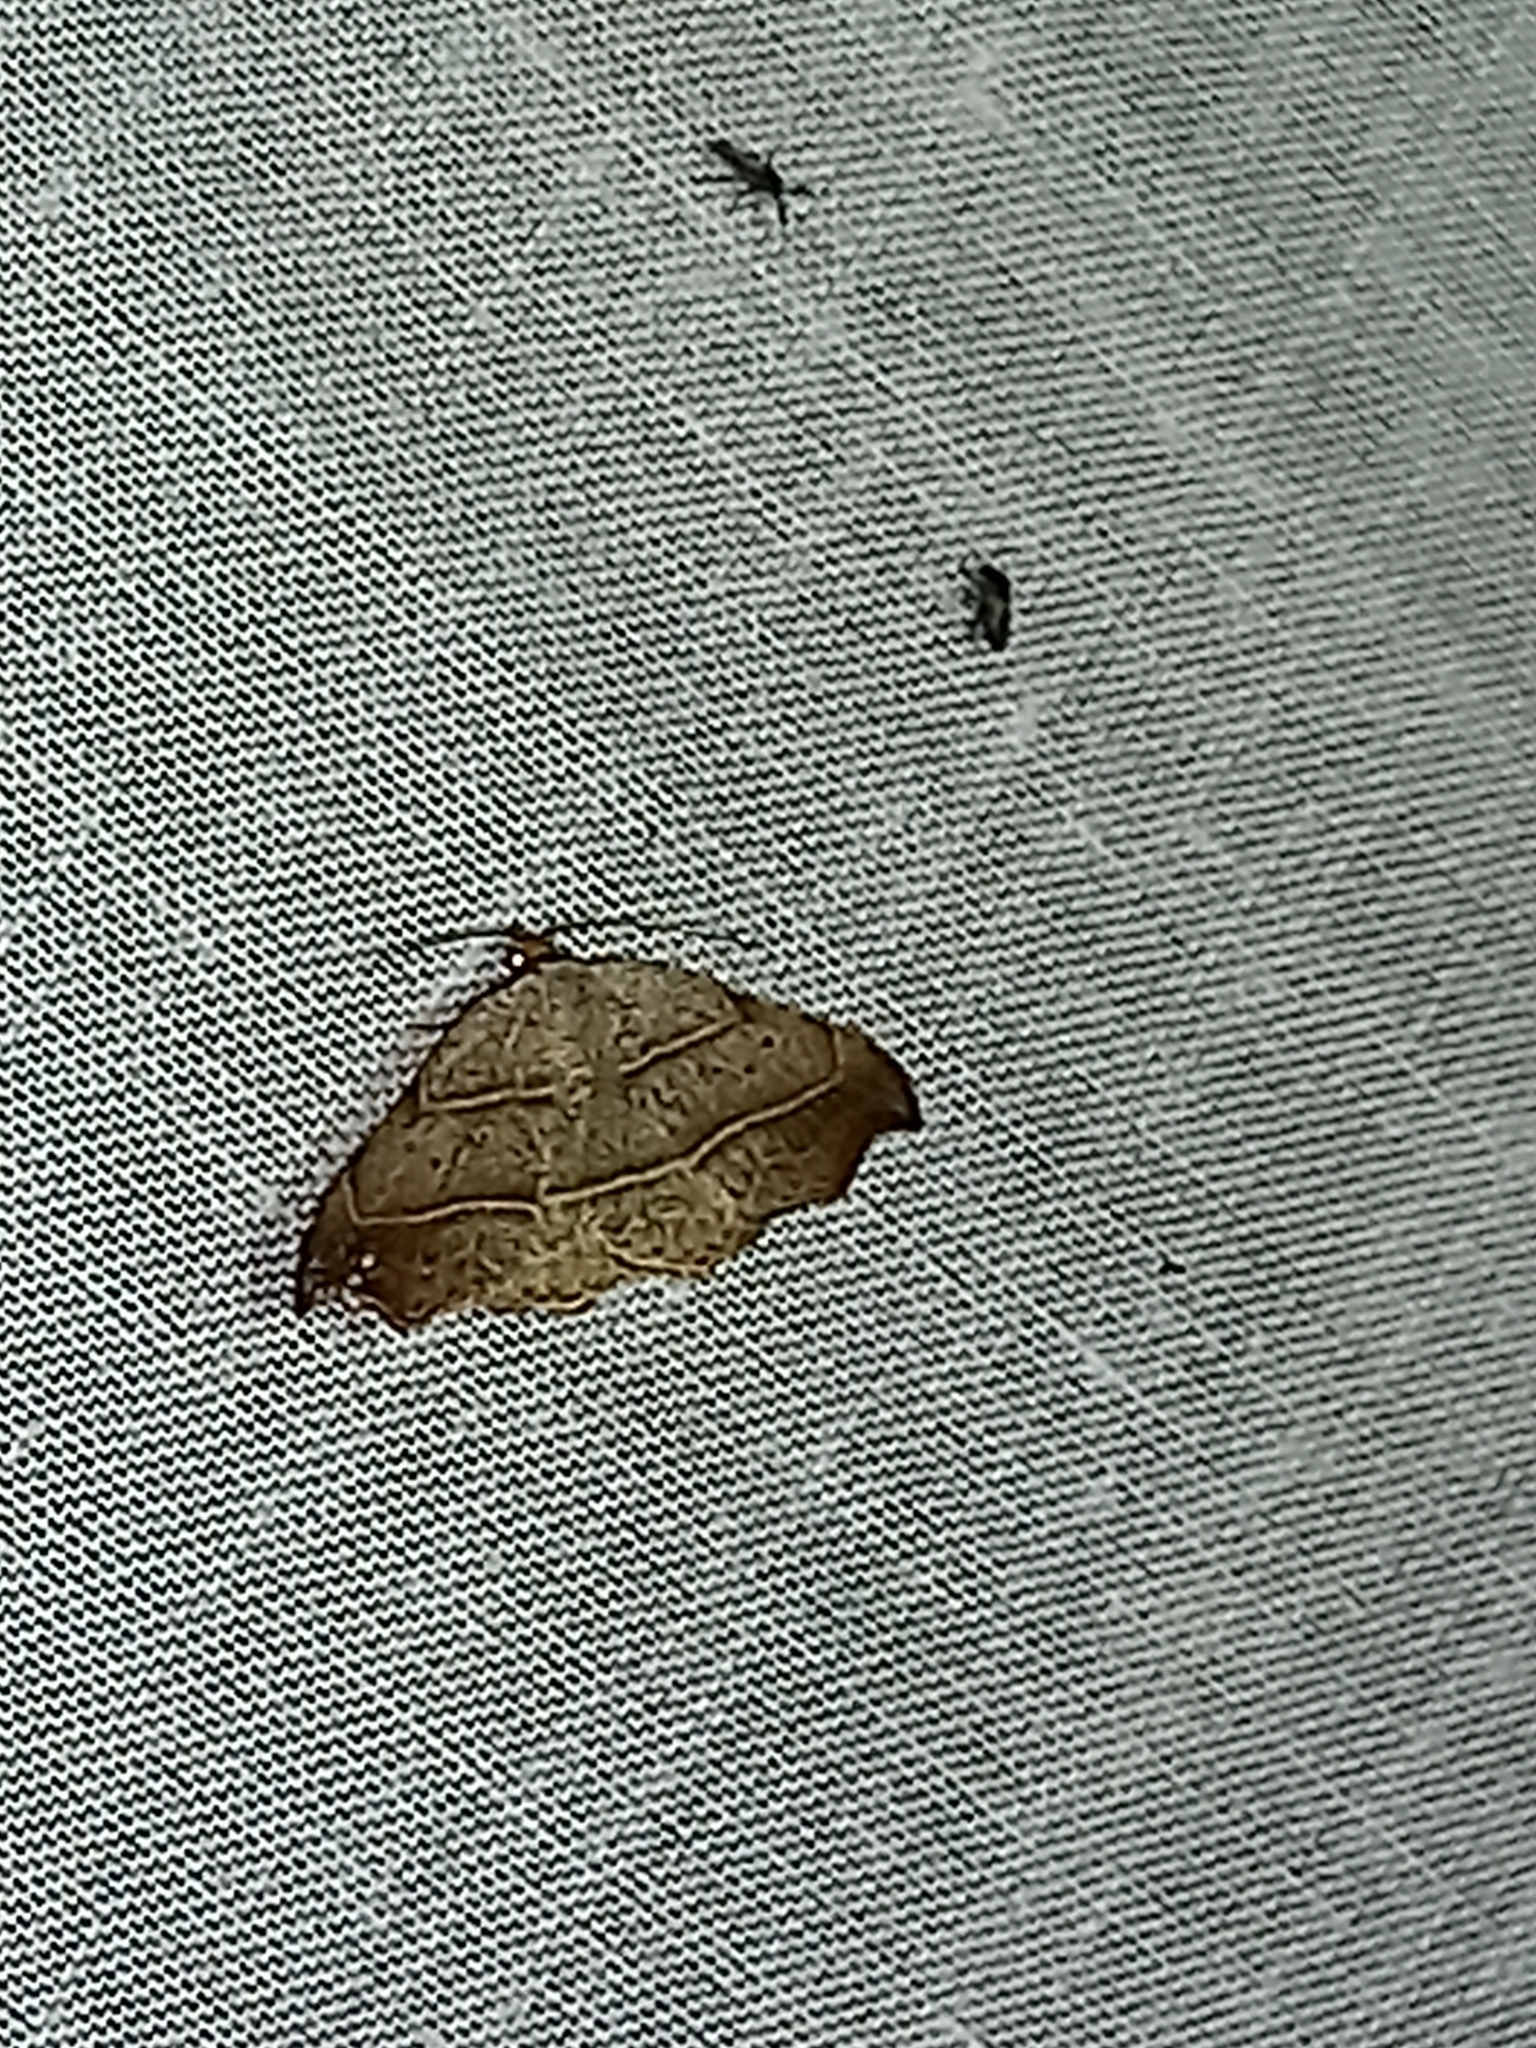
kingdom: Animalia
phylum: Arthropoda
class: Insecta
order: Lepidoptera
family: Erebidae
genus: Laspeyria
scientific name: Laspeyria flexula
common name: Beautiful hook-tip
